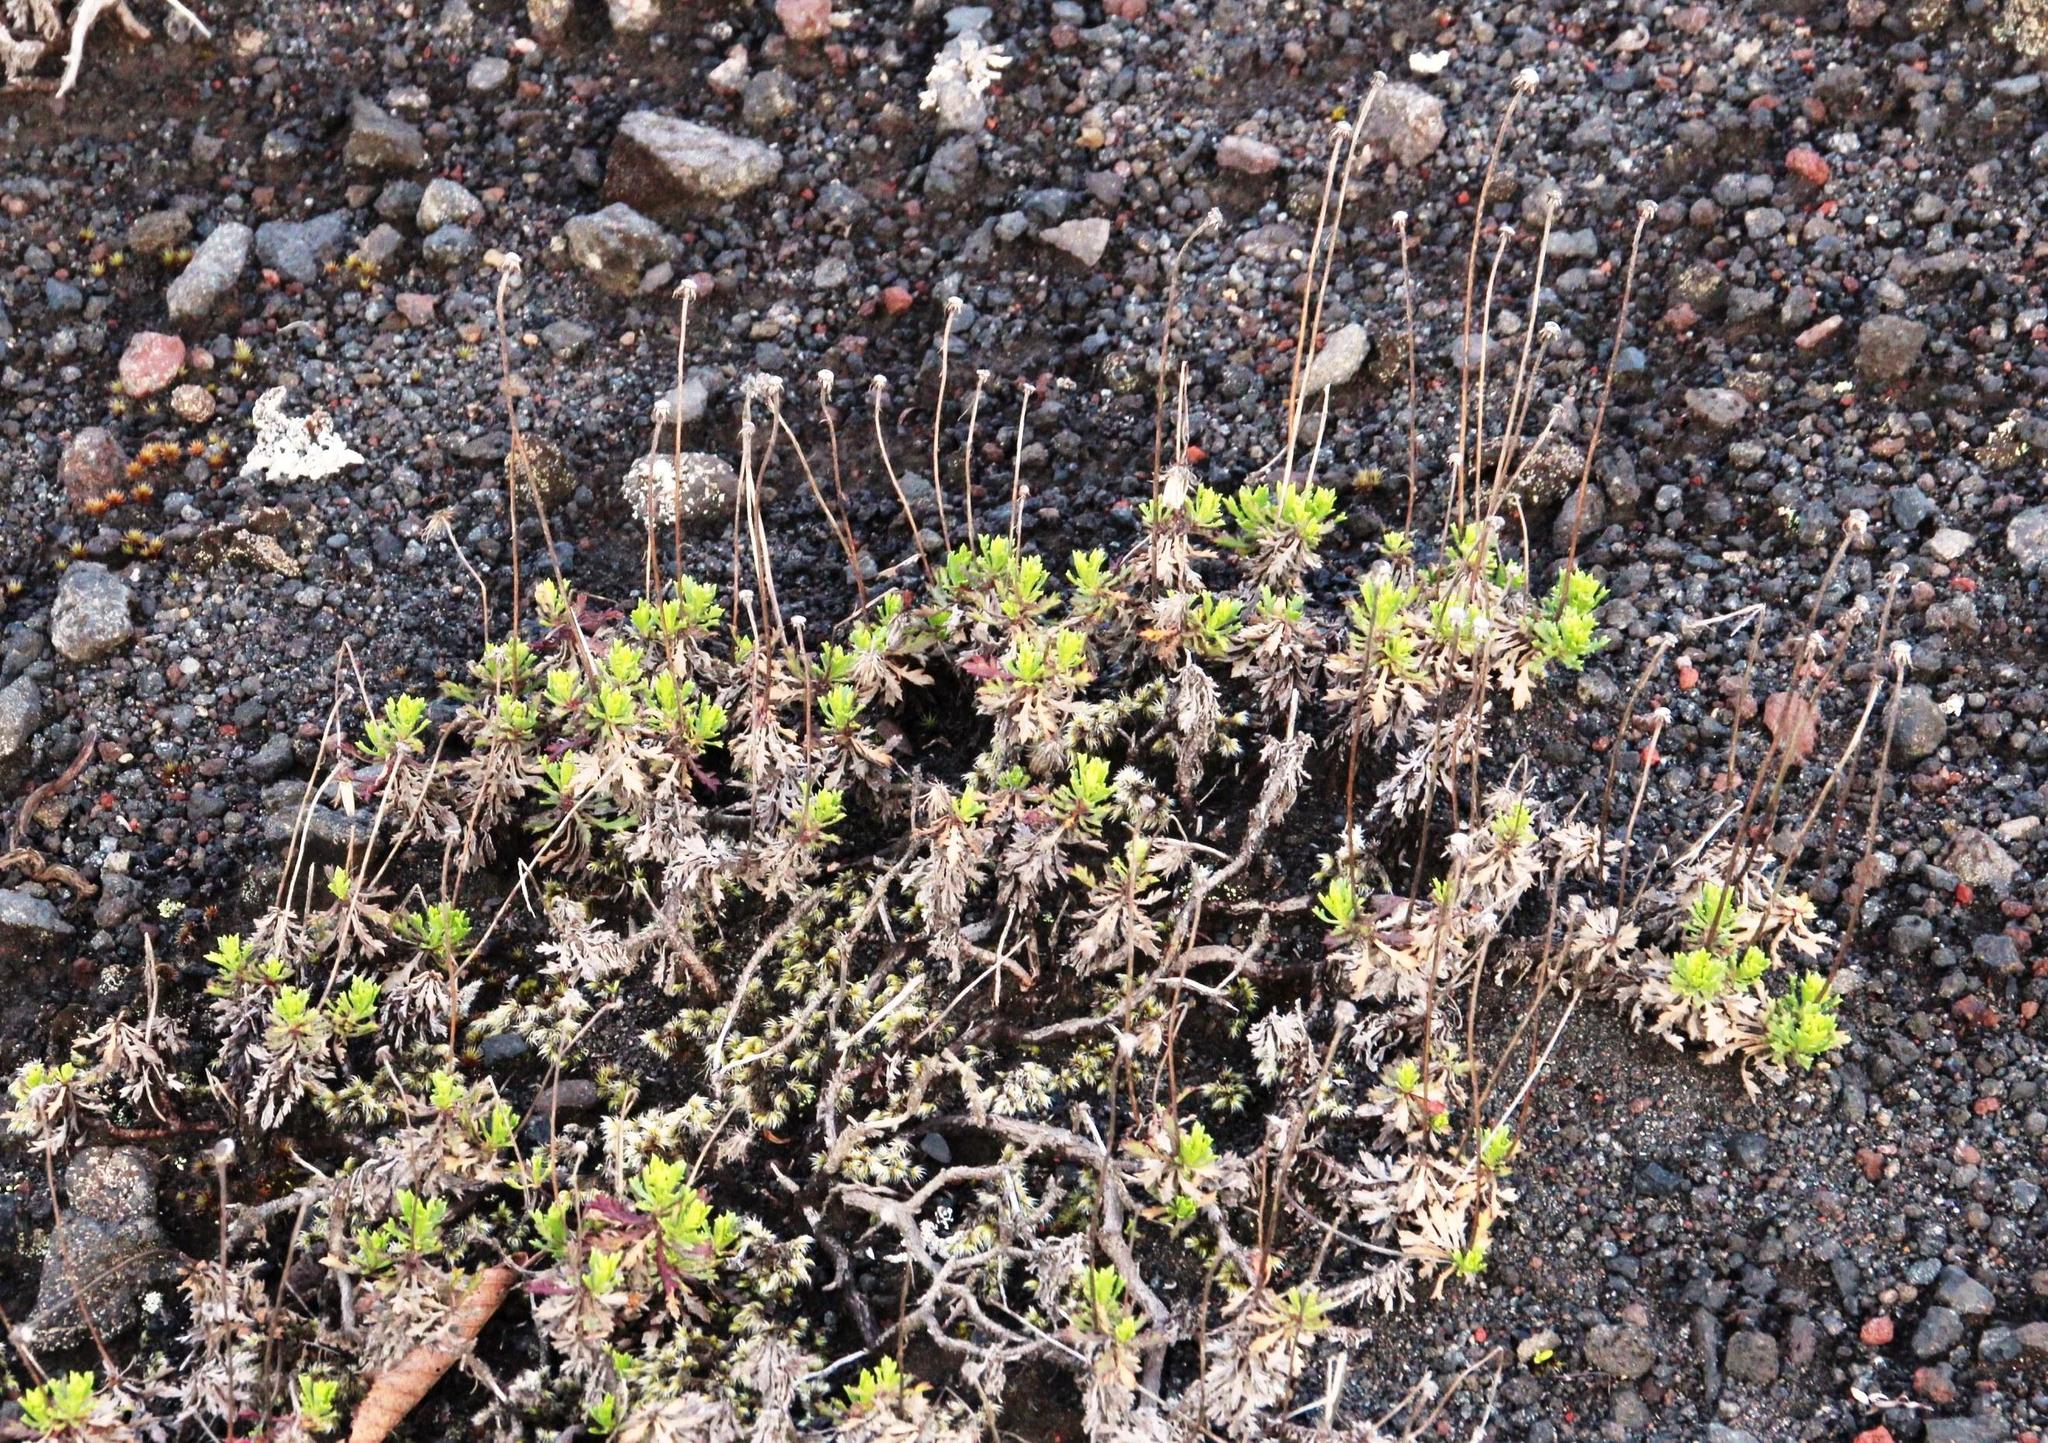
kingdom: Plantae
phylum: Tracheophyta
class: Magnoliopsida
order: Asterales
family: Asteraceae
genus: Haplopappus
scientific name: Haplopappus glutinosus
